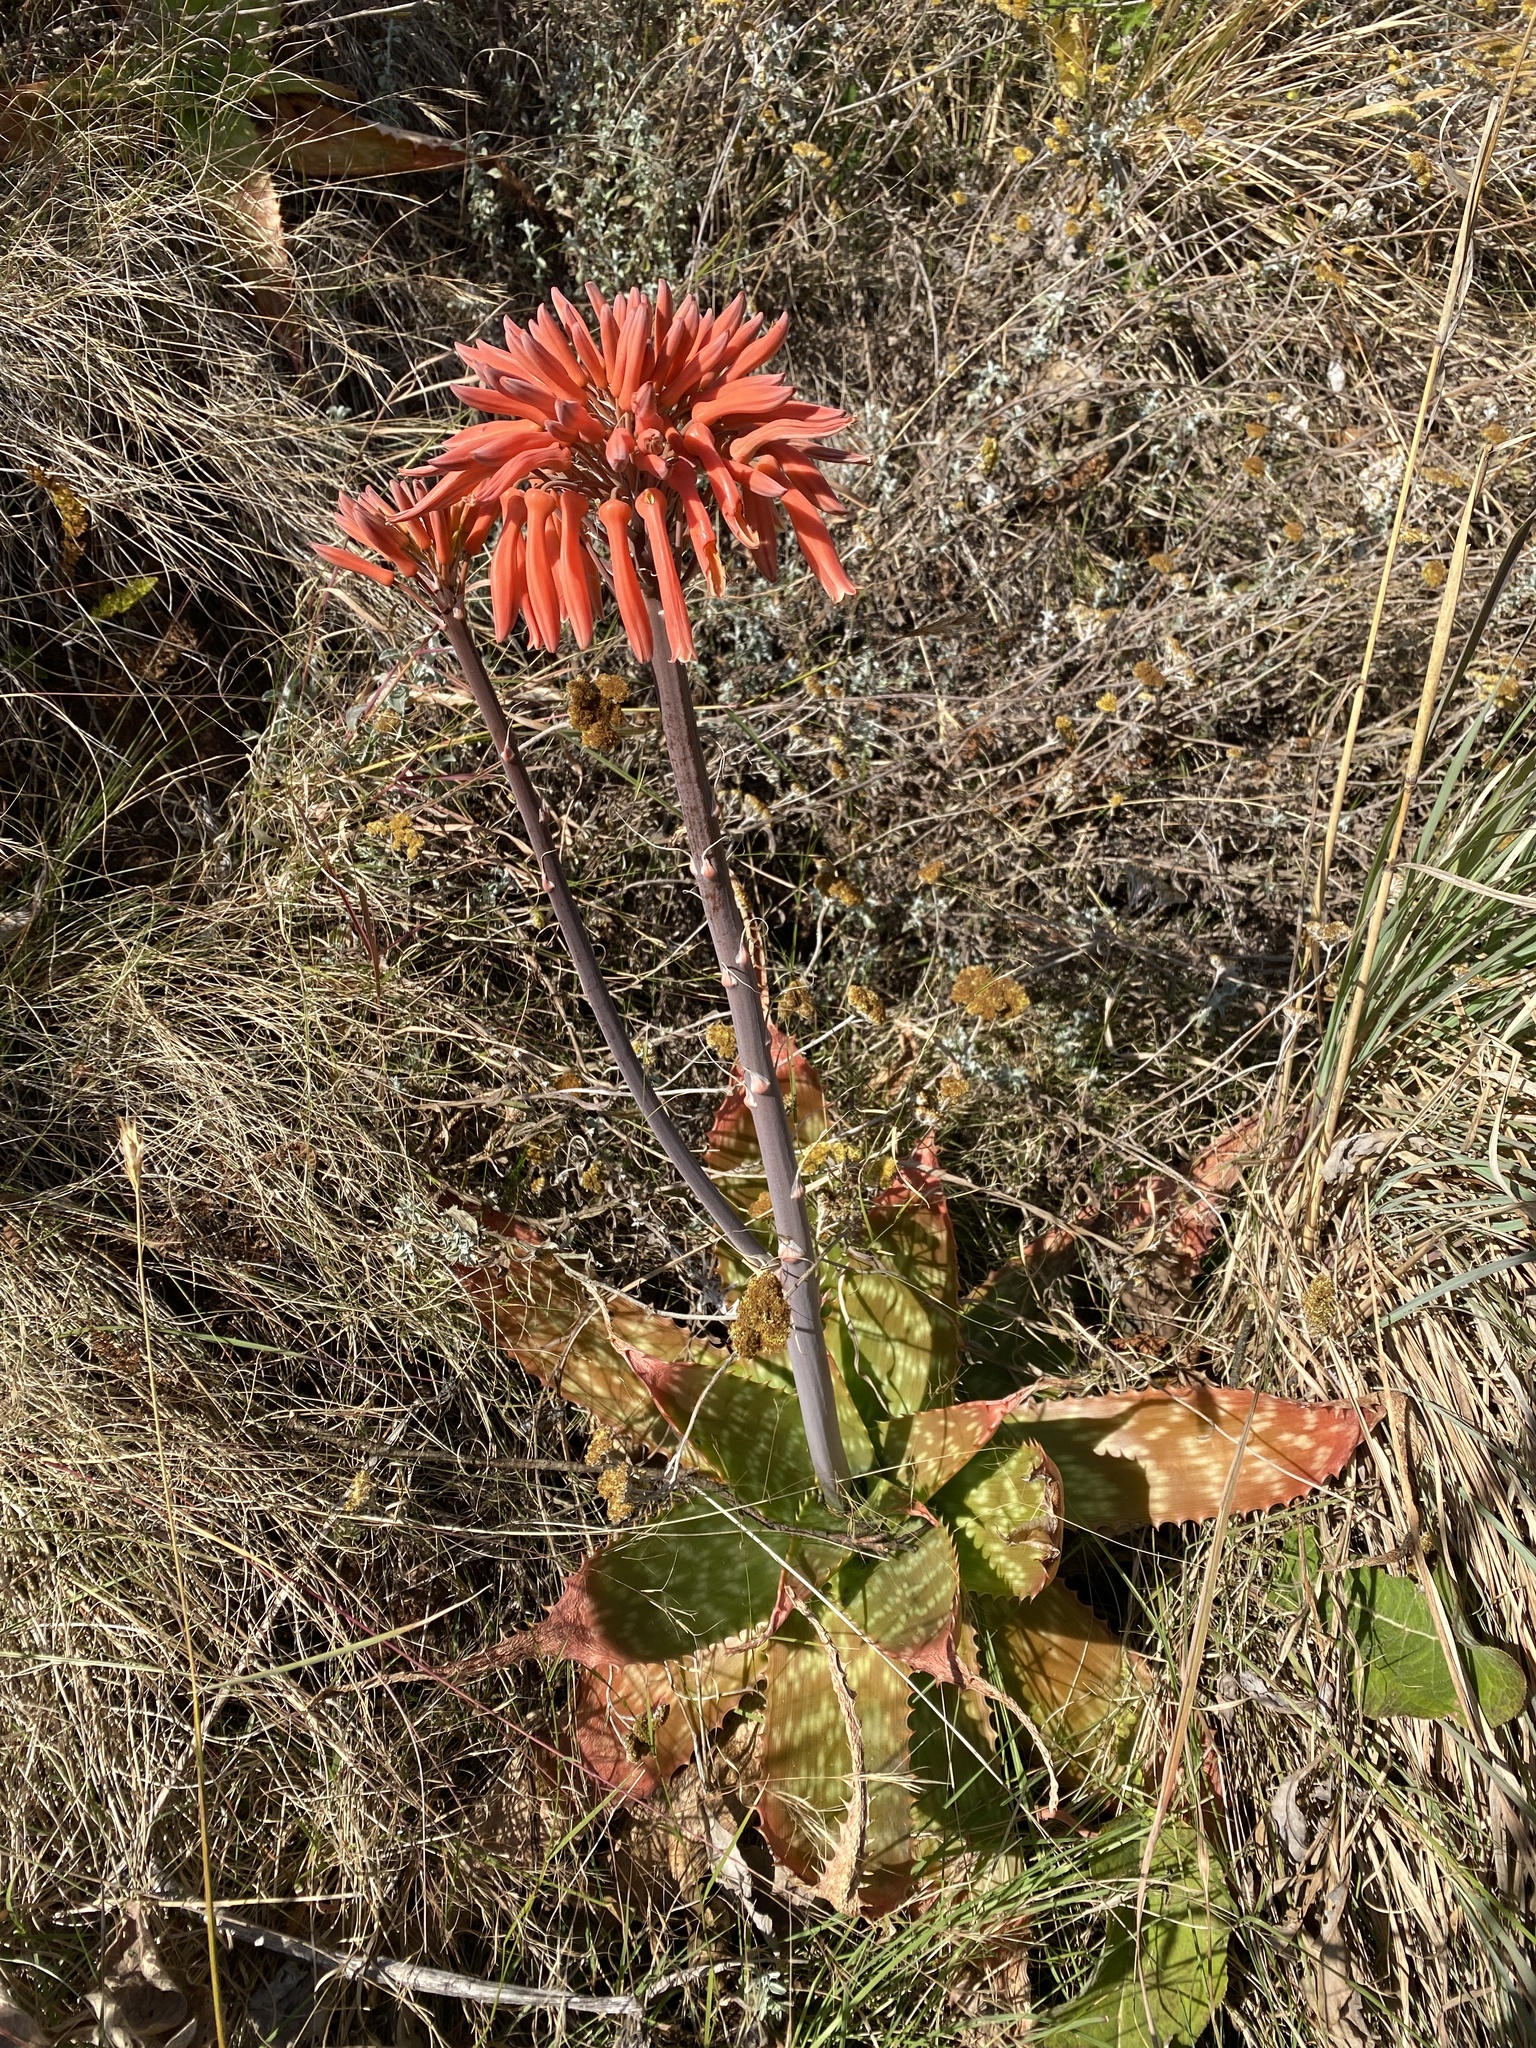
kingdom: Plantae
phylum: Tracheophyta
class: Liliopsida
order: Asparagales
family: Asphodelaceae
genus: Aloe
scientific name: Aloe maculata
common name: Broadleaf aloe
